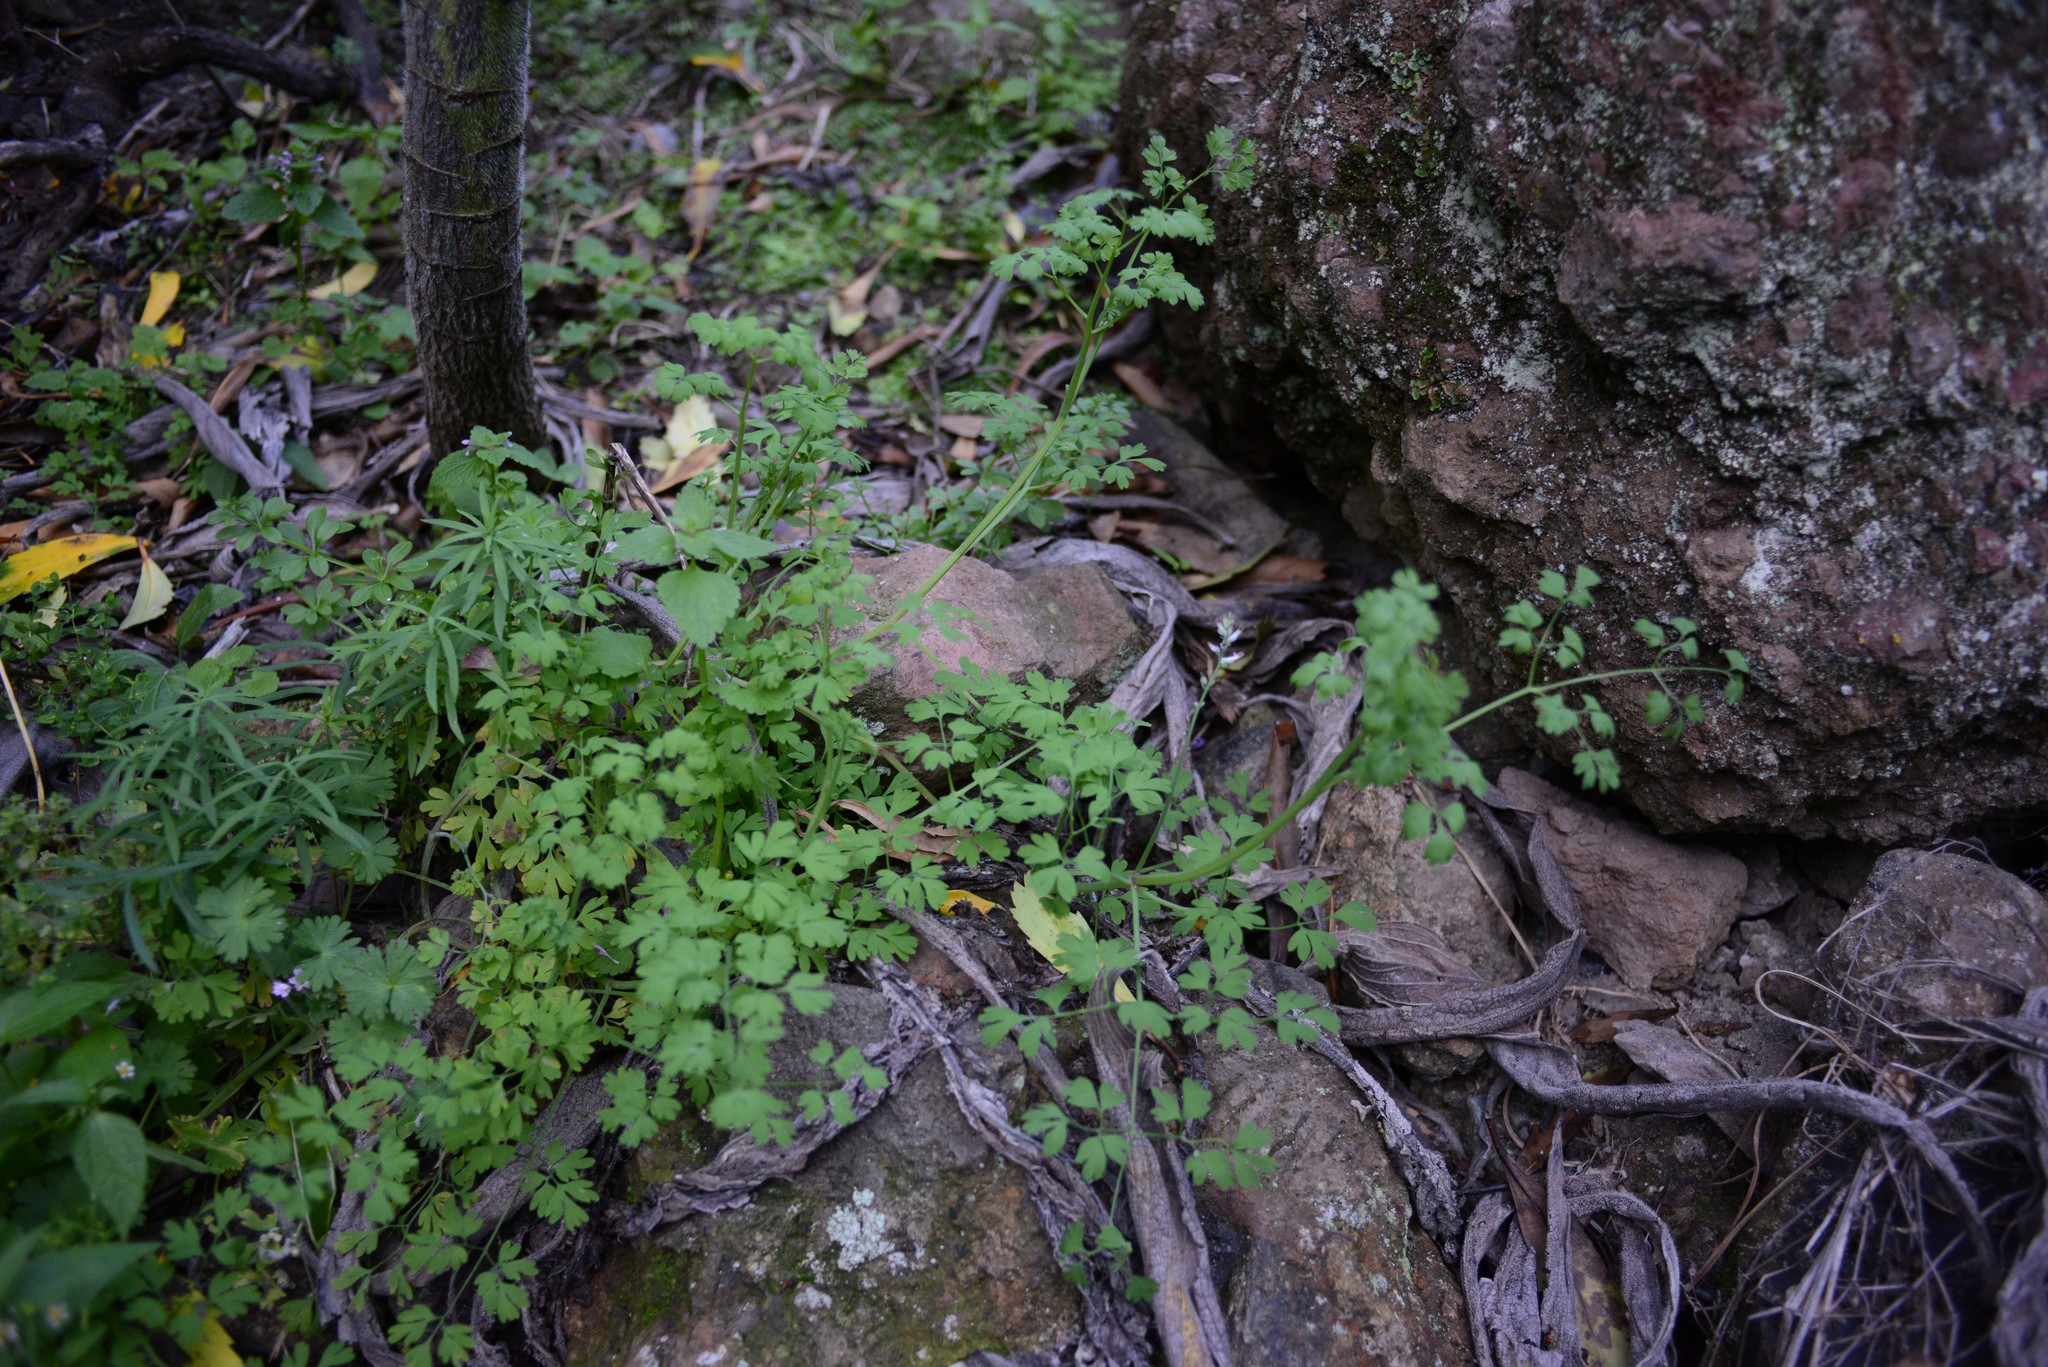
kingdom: Plantae
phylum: Tracheophyta
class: Magnoliopsida
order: Ranunculales
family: Papaveraceae
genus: Fumaria
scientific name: Fumaria muralis
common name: Common ramping-fumitory
